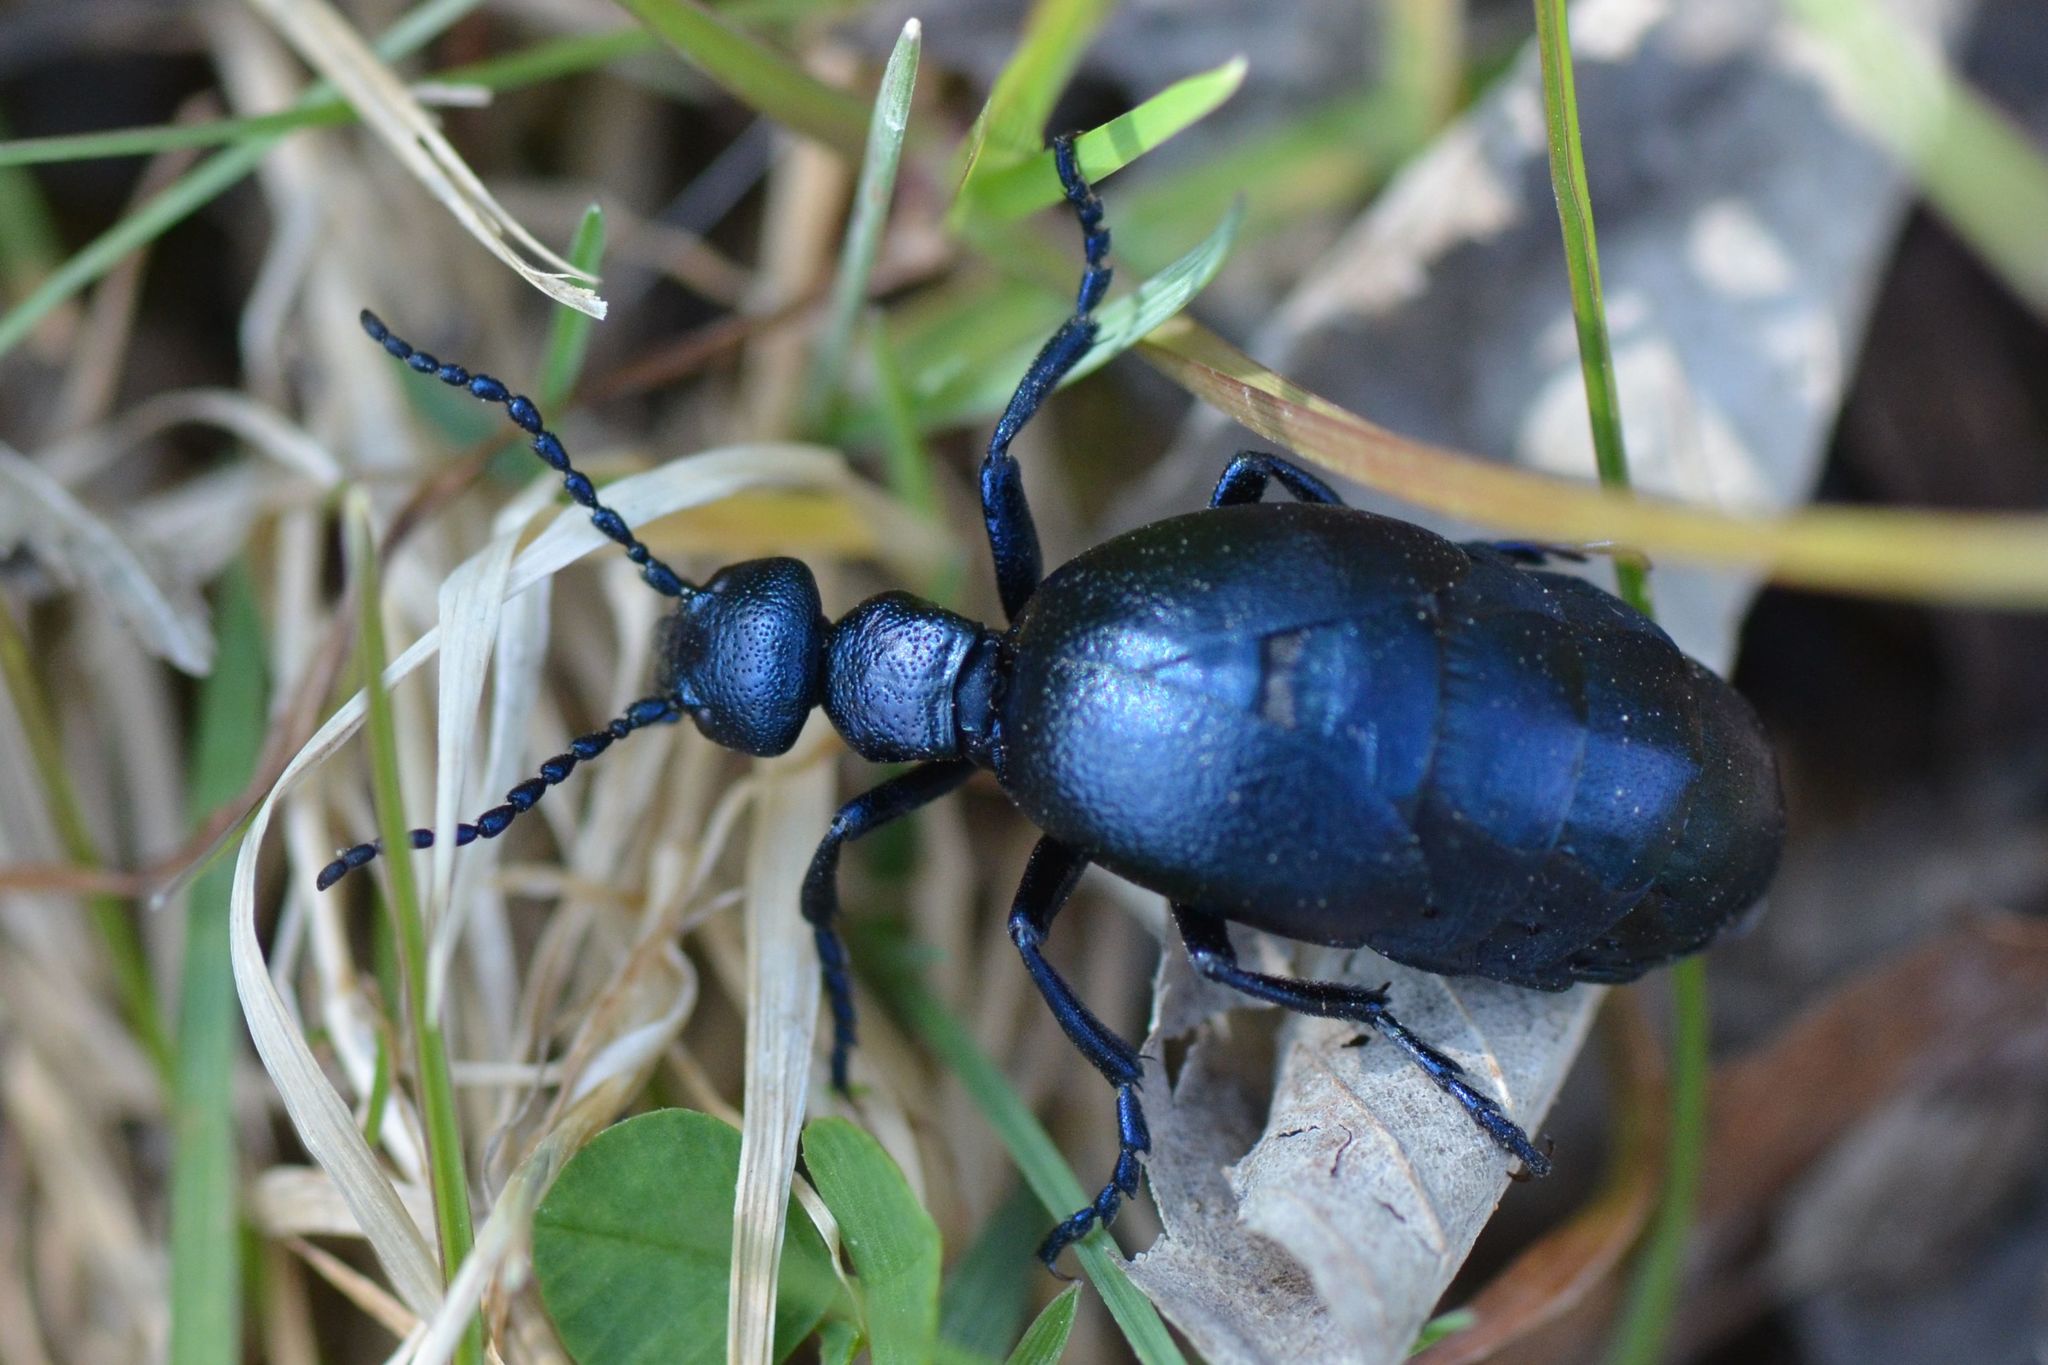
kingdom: Animalia
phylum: Arthropoda
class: Insecta
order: Coleoptera
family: Meloidae
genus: Meloe
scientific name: Meloe violaceus
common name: Violet oil-beetle
